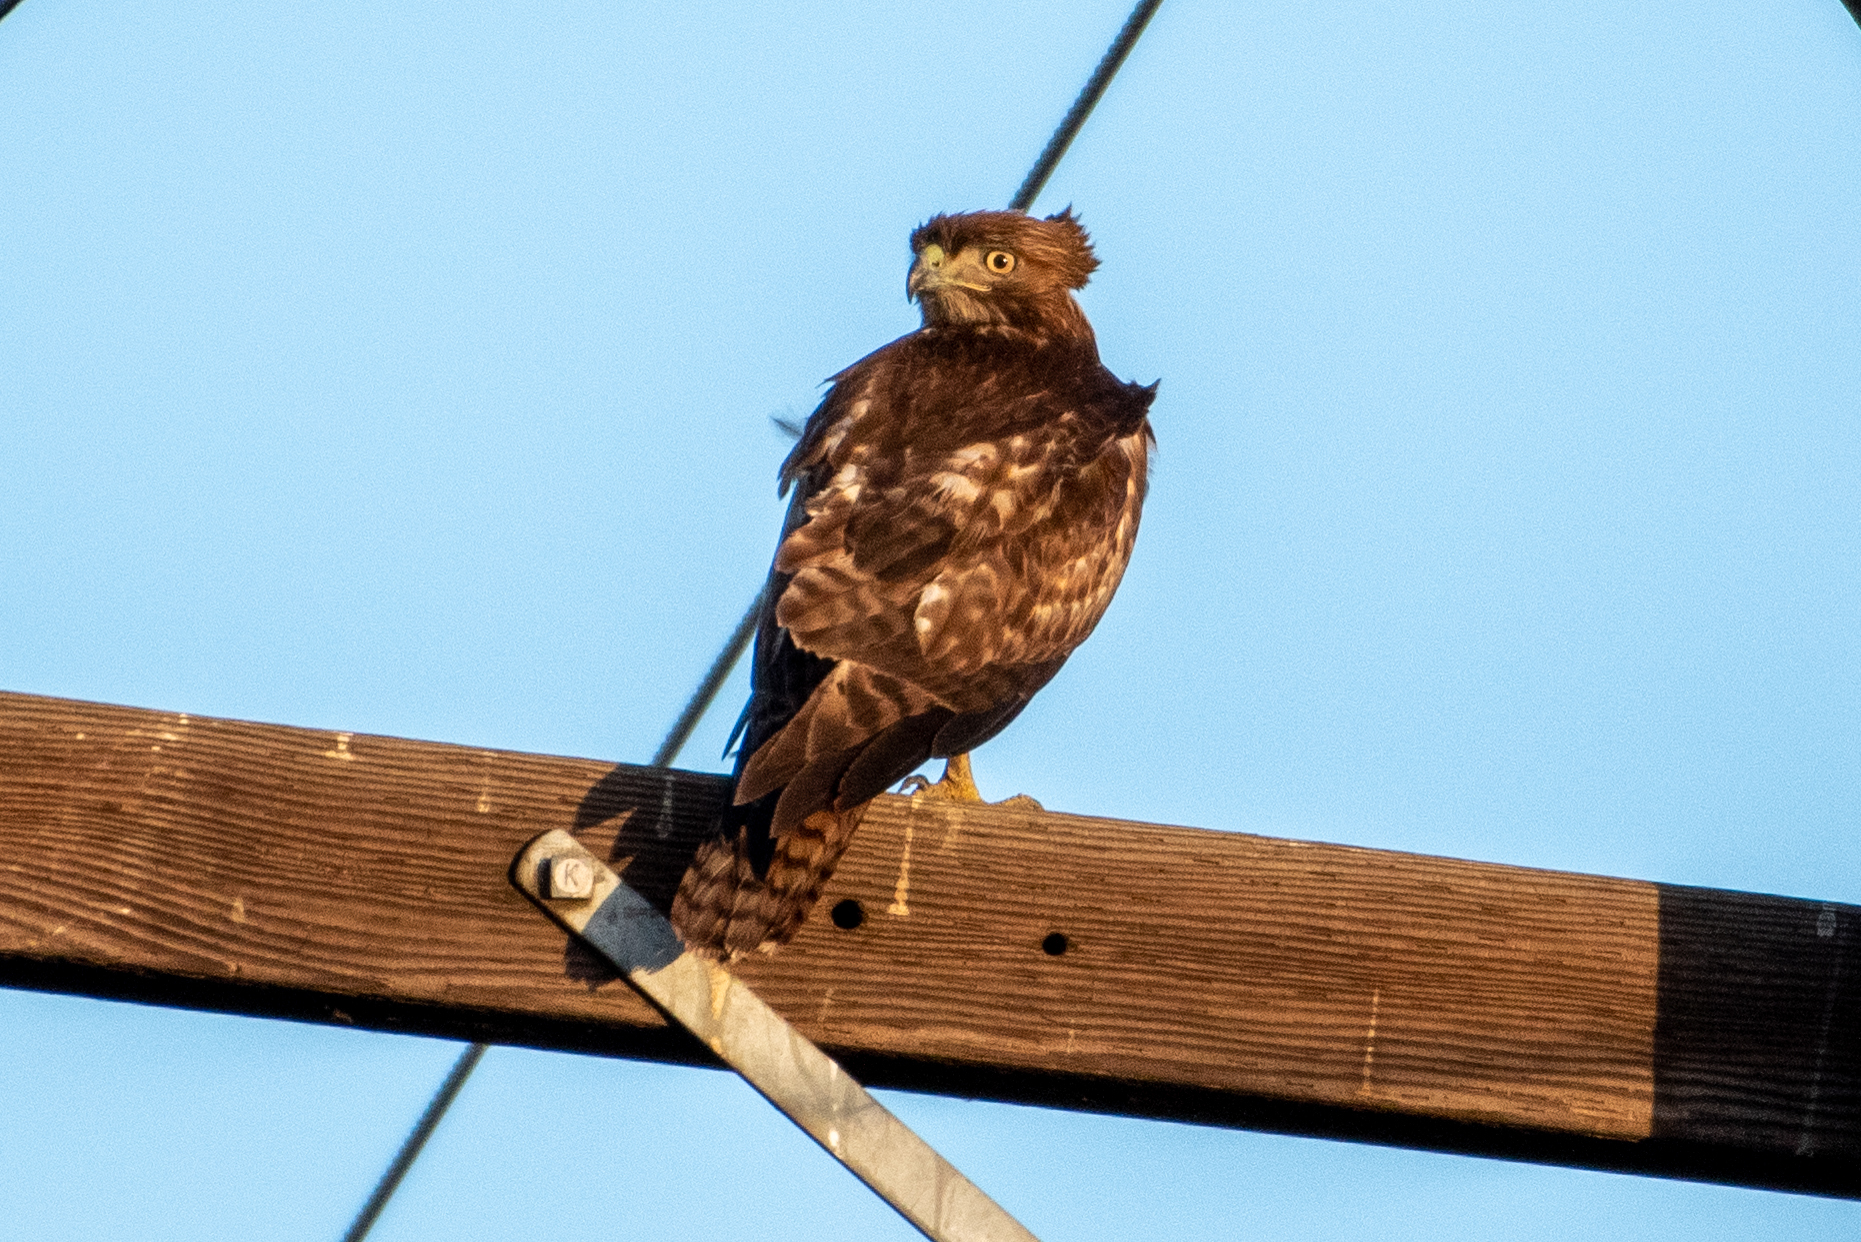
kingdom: Animalia
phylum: Chordata
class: Aves
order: Accipitriformes
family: Accipitridae
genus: Buteo
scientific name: Buteo jamaicensis
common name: Red-tailed hawk
